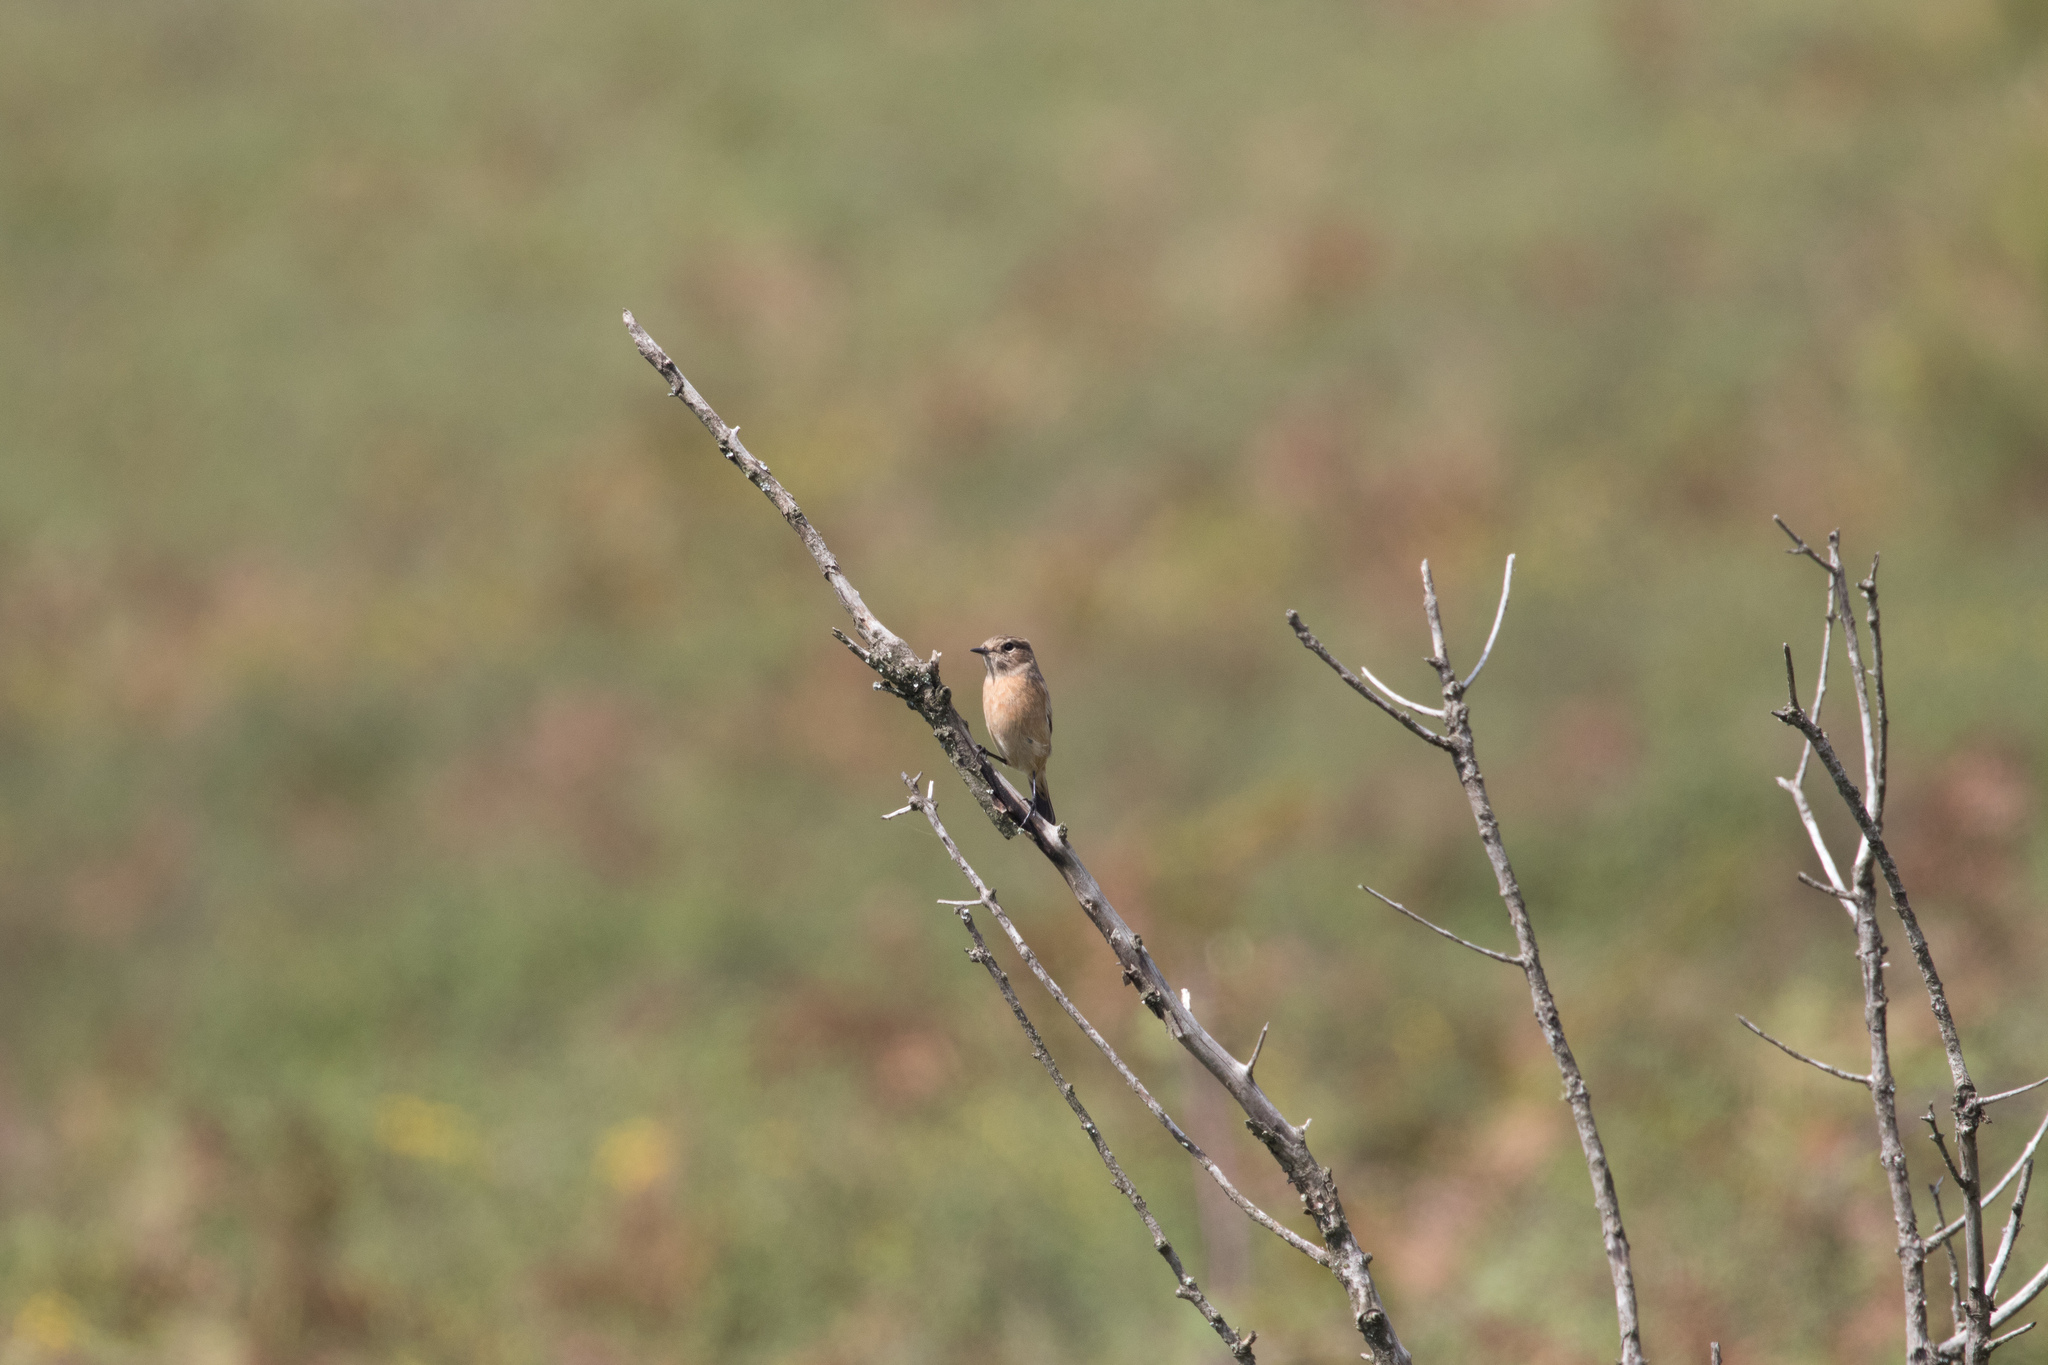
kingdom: Animalia
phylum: Chordata
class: Aves
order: Passeriformes
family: Muscicapidae
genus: Saxicola
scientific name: Saxicola rubicola
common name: European stonechat
